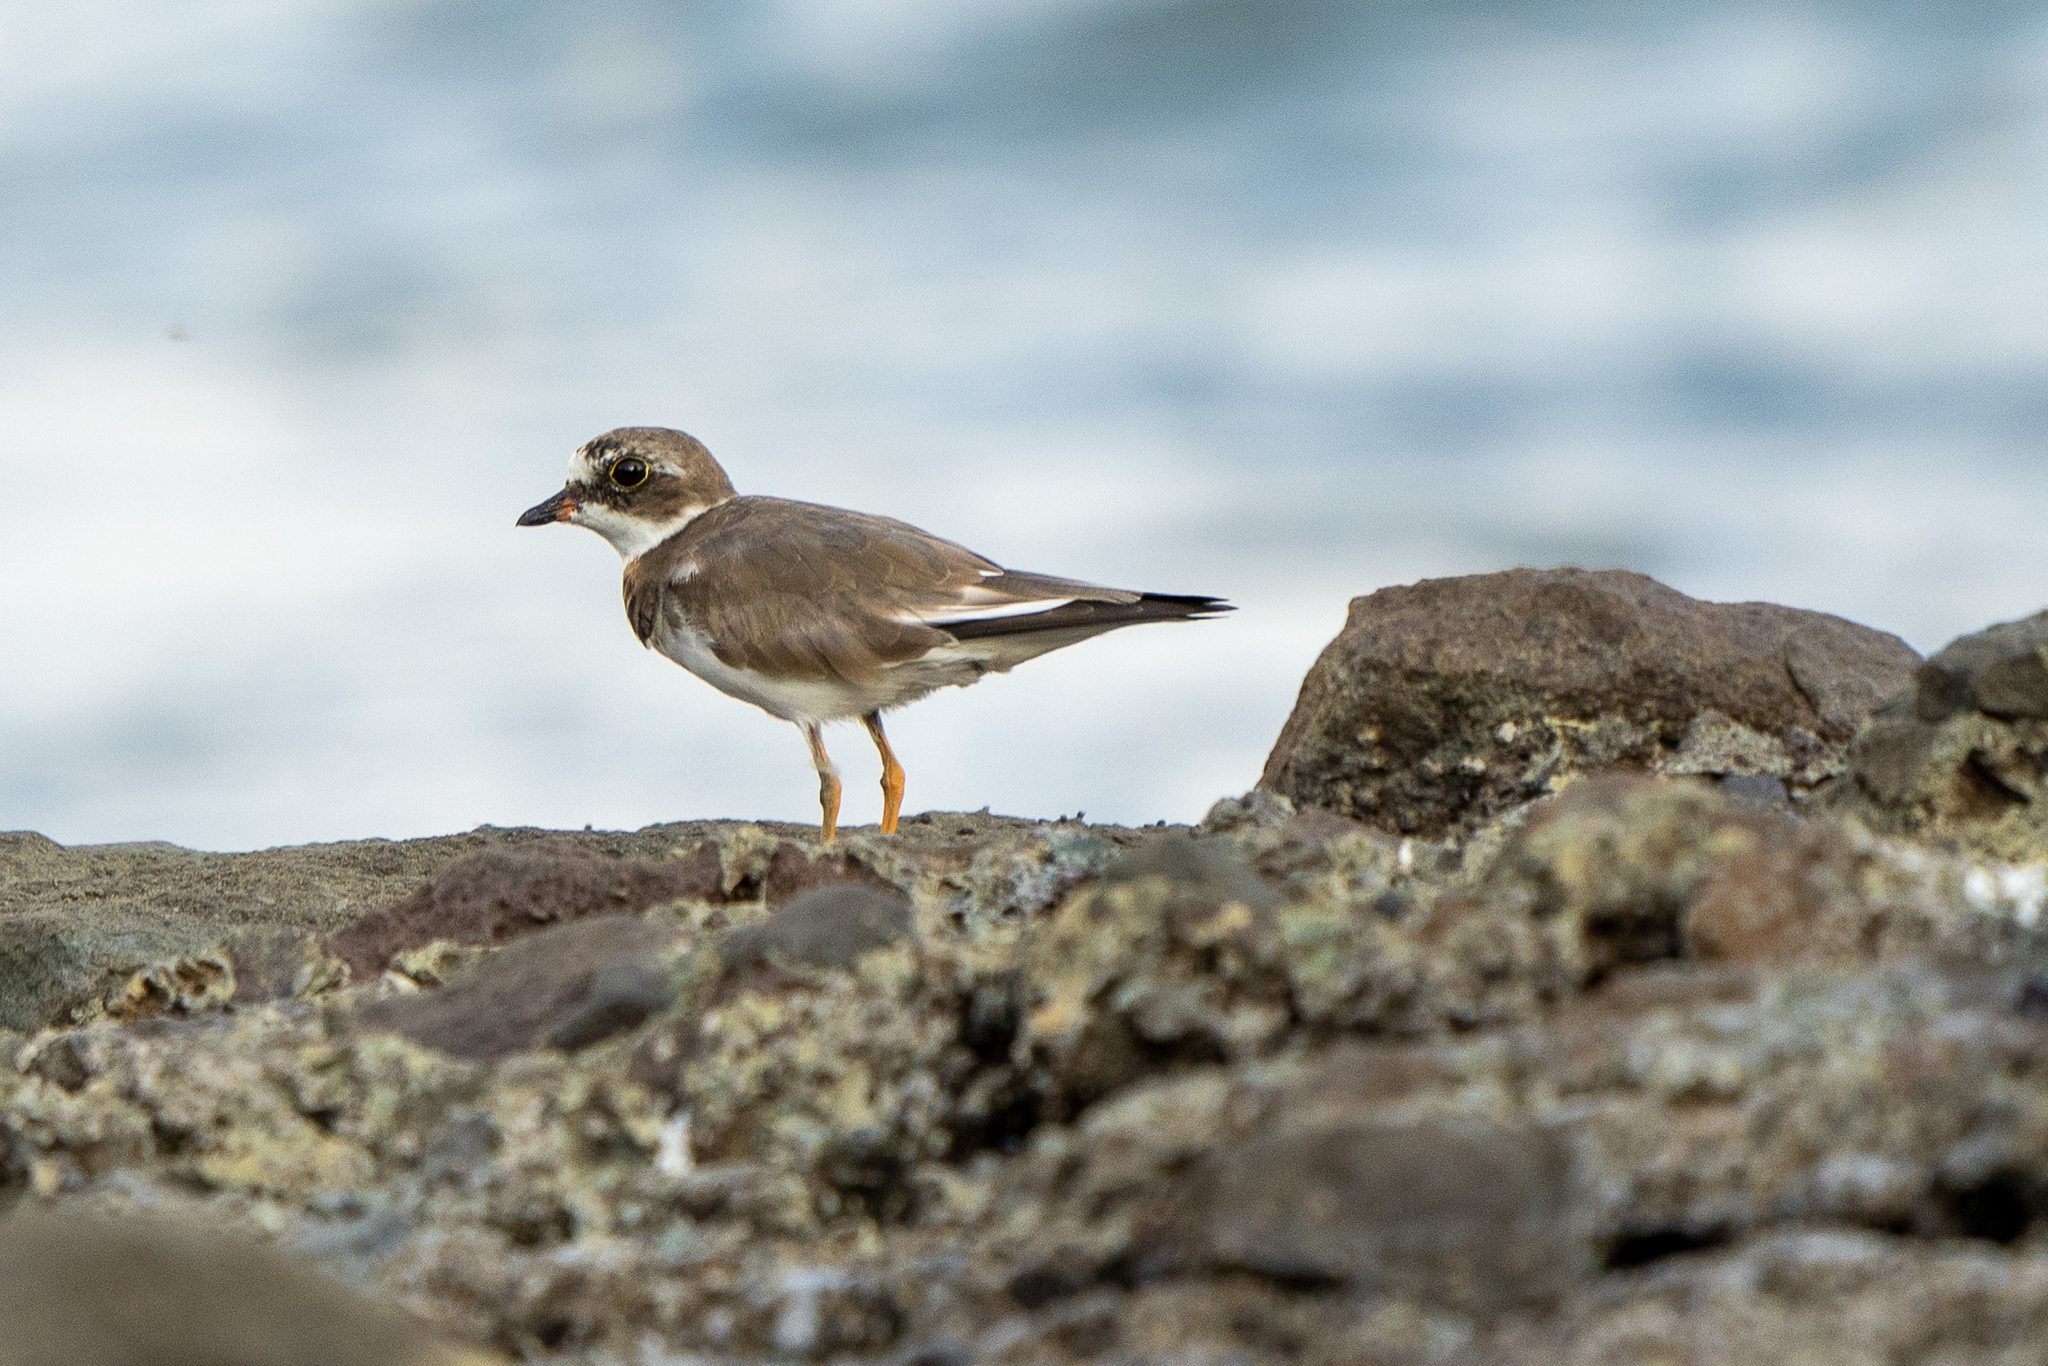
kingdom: Animalia
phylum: Chordata
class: Aves
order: Charadriiformes
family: Charadriidae
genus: Charadrius
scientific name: Charadrius semipalmatus
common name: Semipalmated plover
